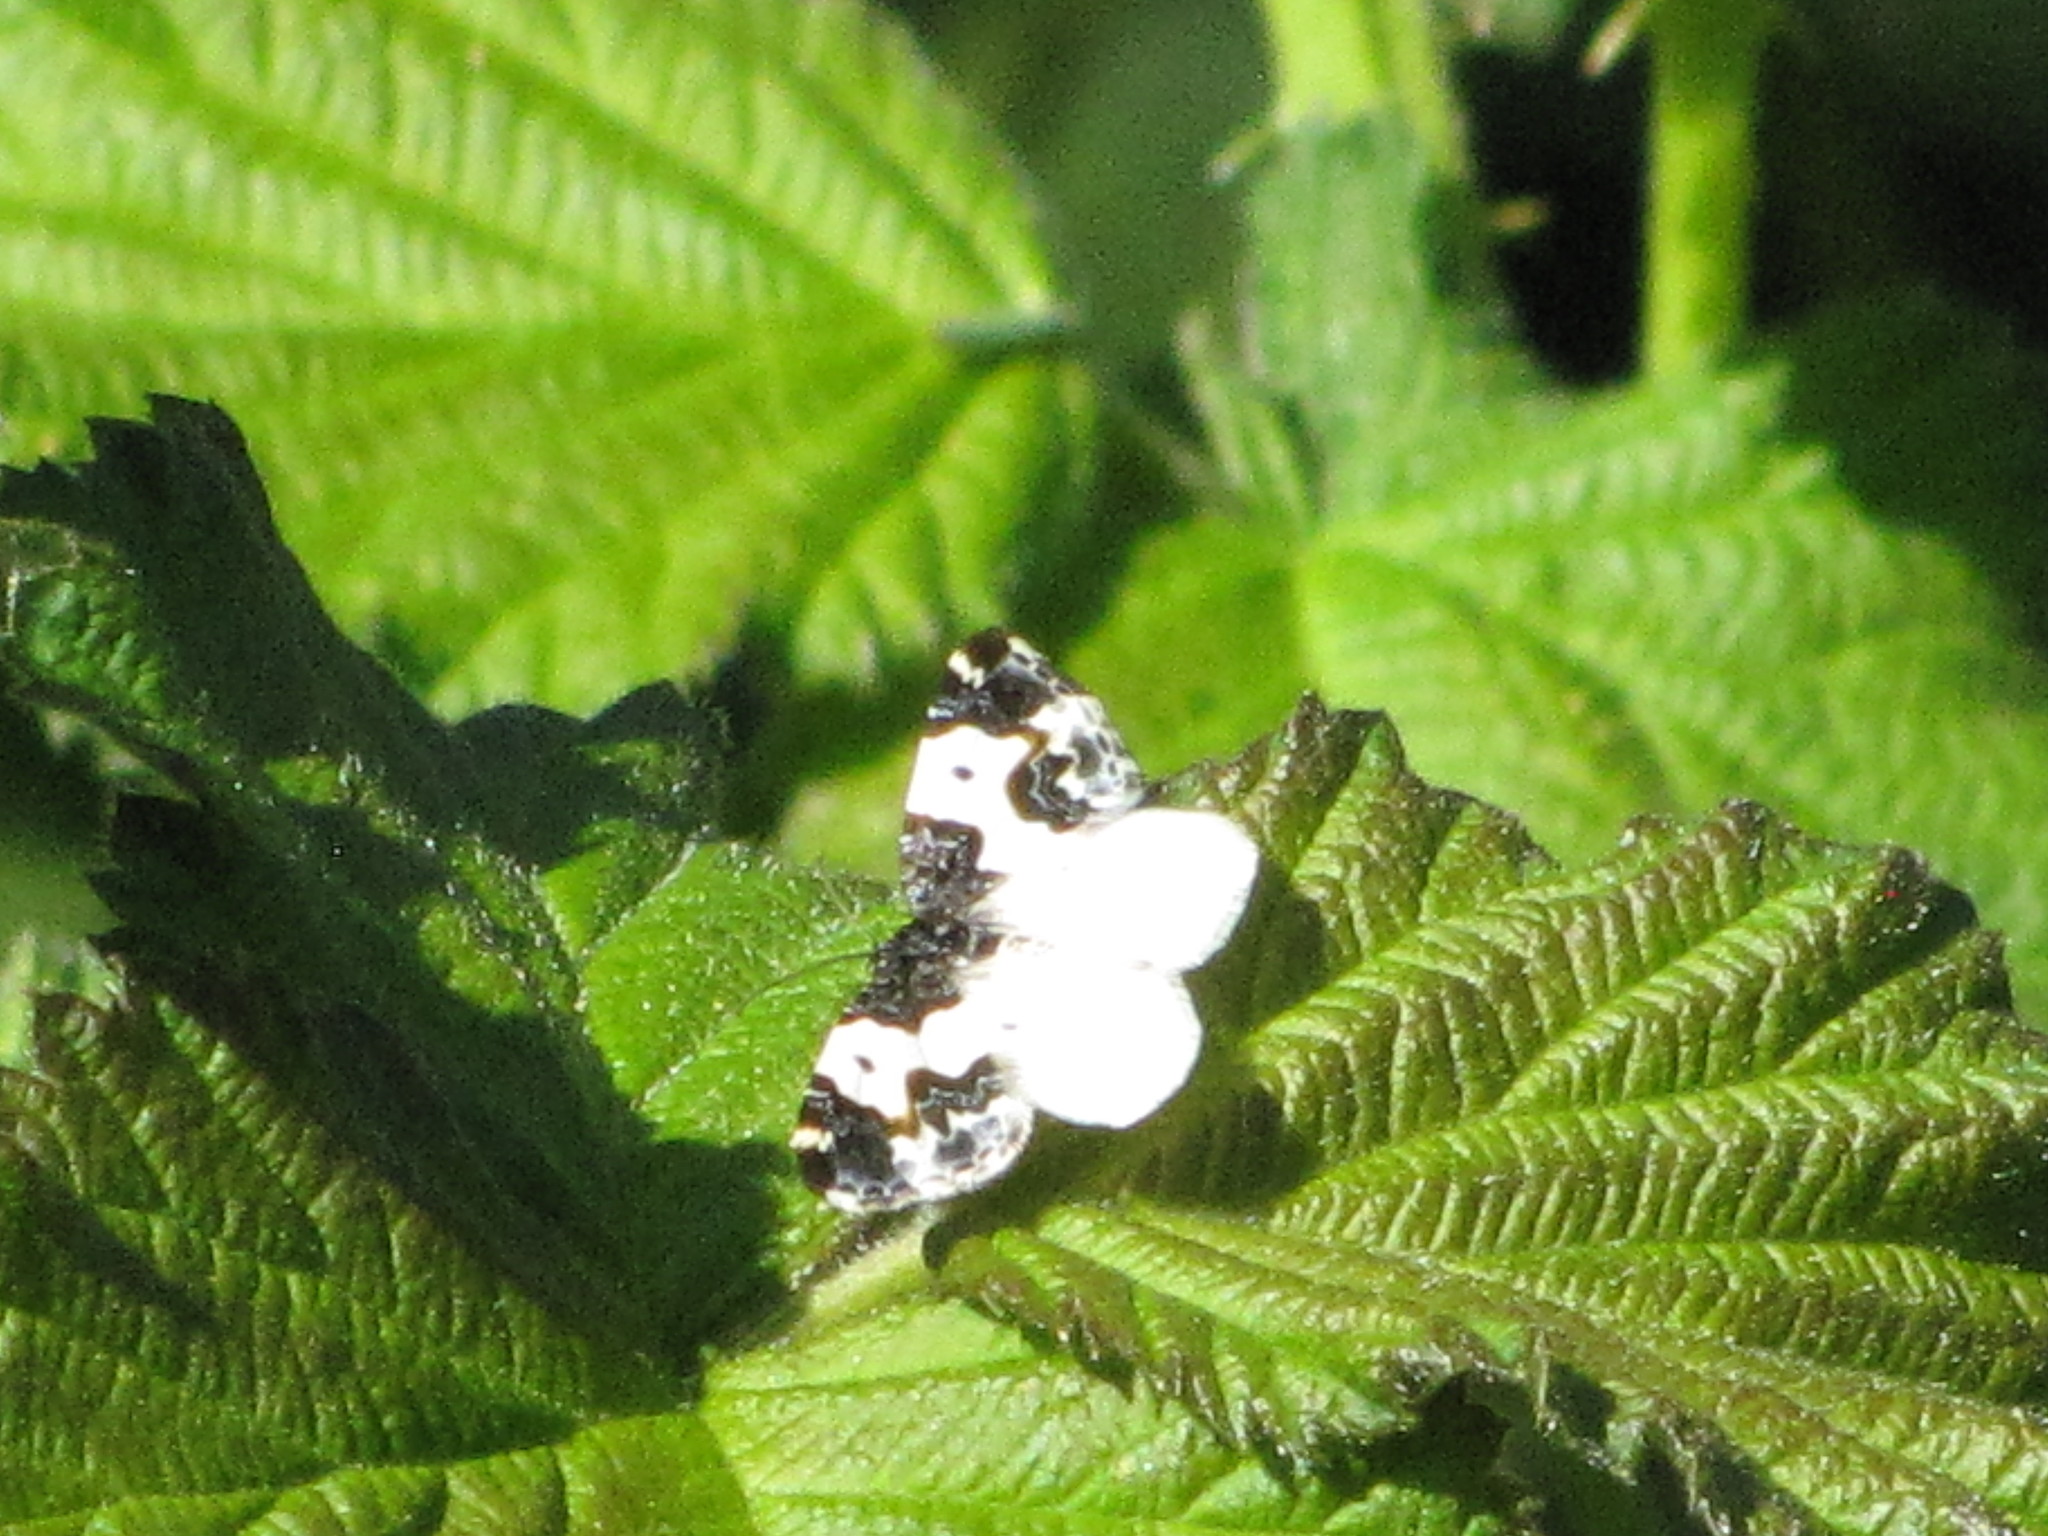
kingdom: Animalia
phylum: Arthropoda
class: Insecta
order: Lepidoptera
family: Geometridae
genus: Mesoleuca
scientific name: Mesoleuca gratulata
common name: Half-white carpet moth
